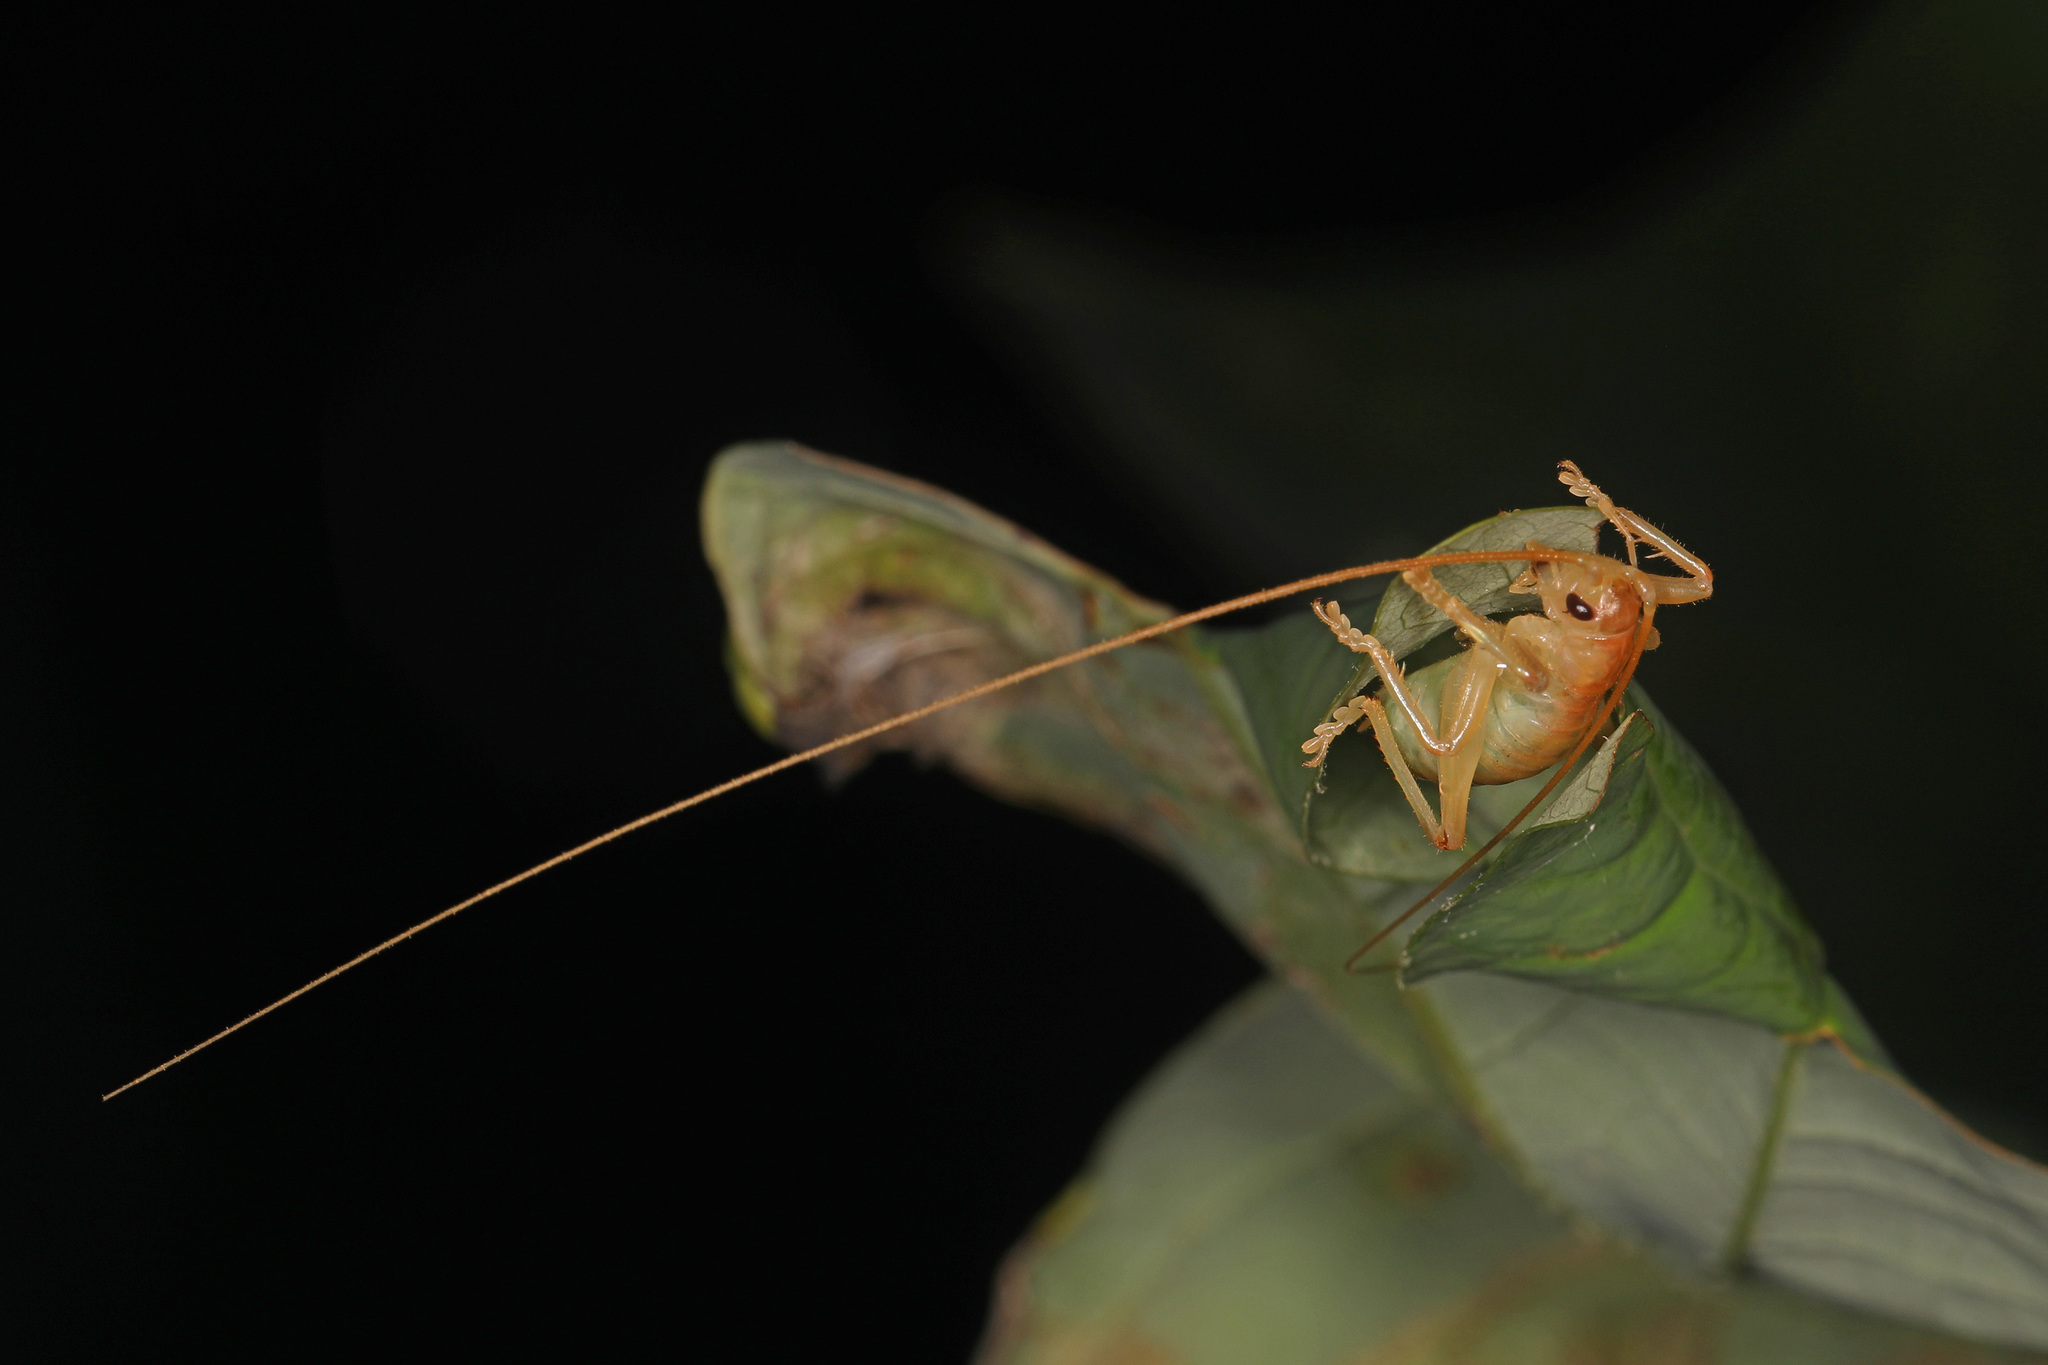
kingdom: Animalia
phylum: Arthropoda
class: Insecta
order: Orthoptera
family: Gryllacrididae
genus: Camptonotus
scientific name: Camptonotus carolinensis
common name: Carolina leaf-roller
